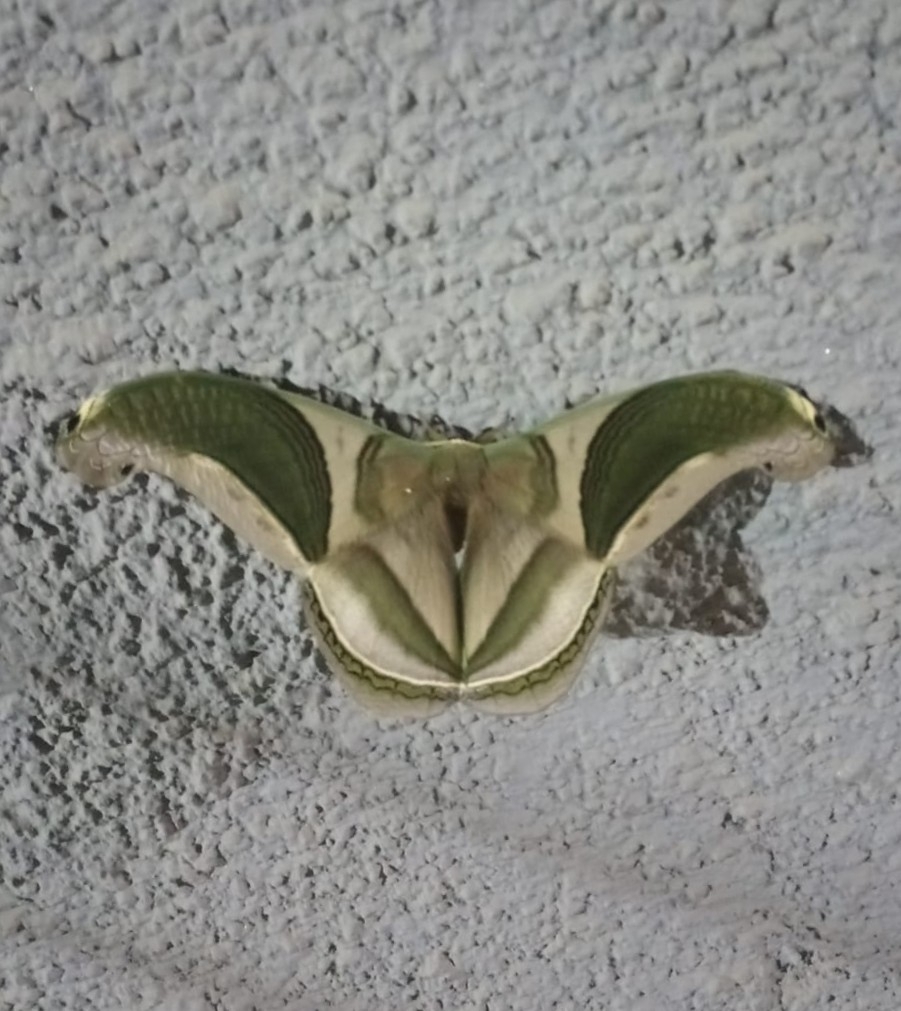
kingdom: Animalia
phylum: Arthropoda
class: Insecta
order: Lepidoptera
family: Saturniidae
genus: Rhescyntis
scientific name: Rhescyntis pseudomartii
